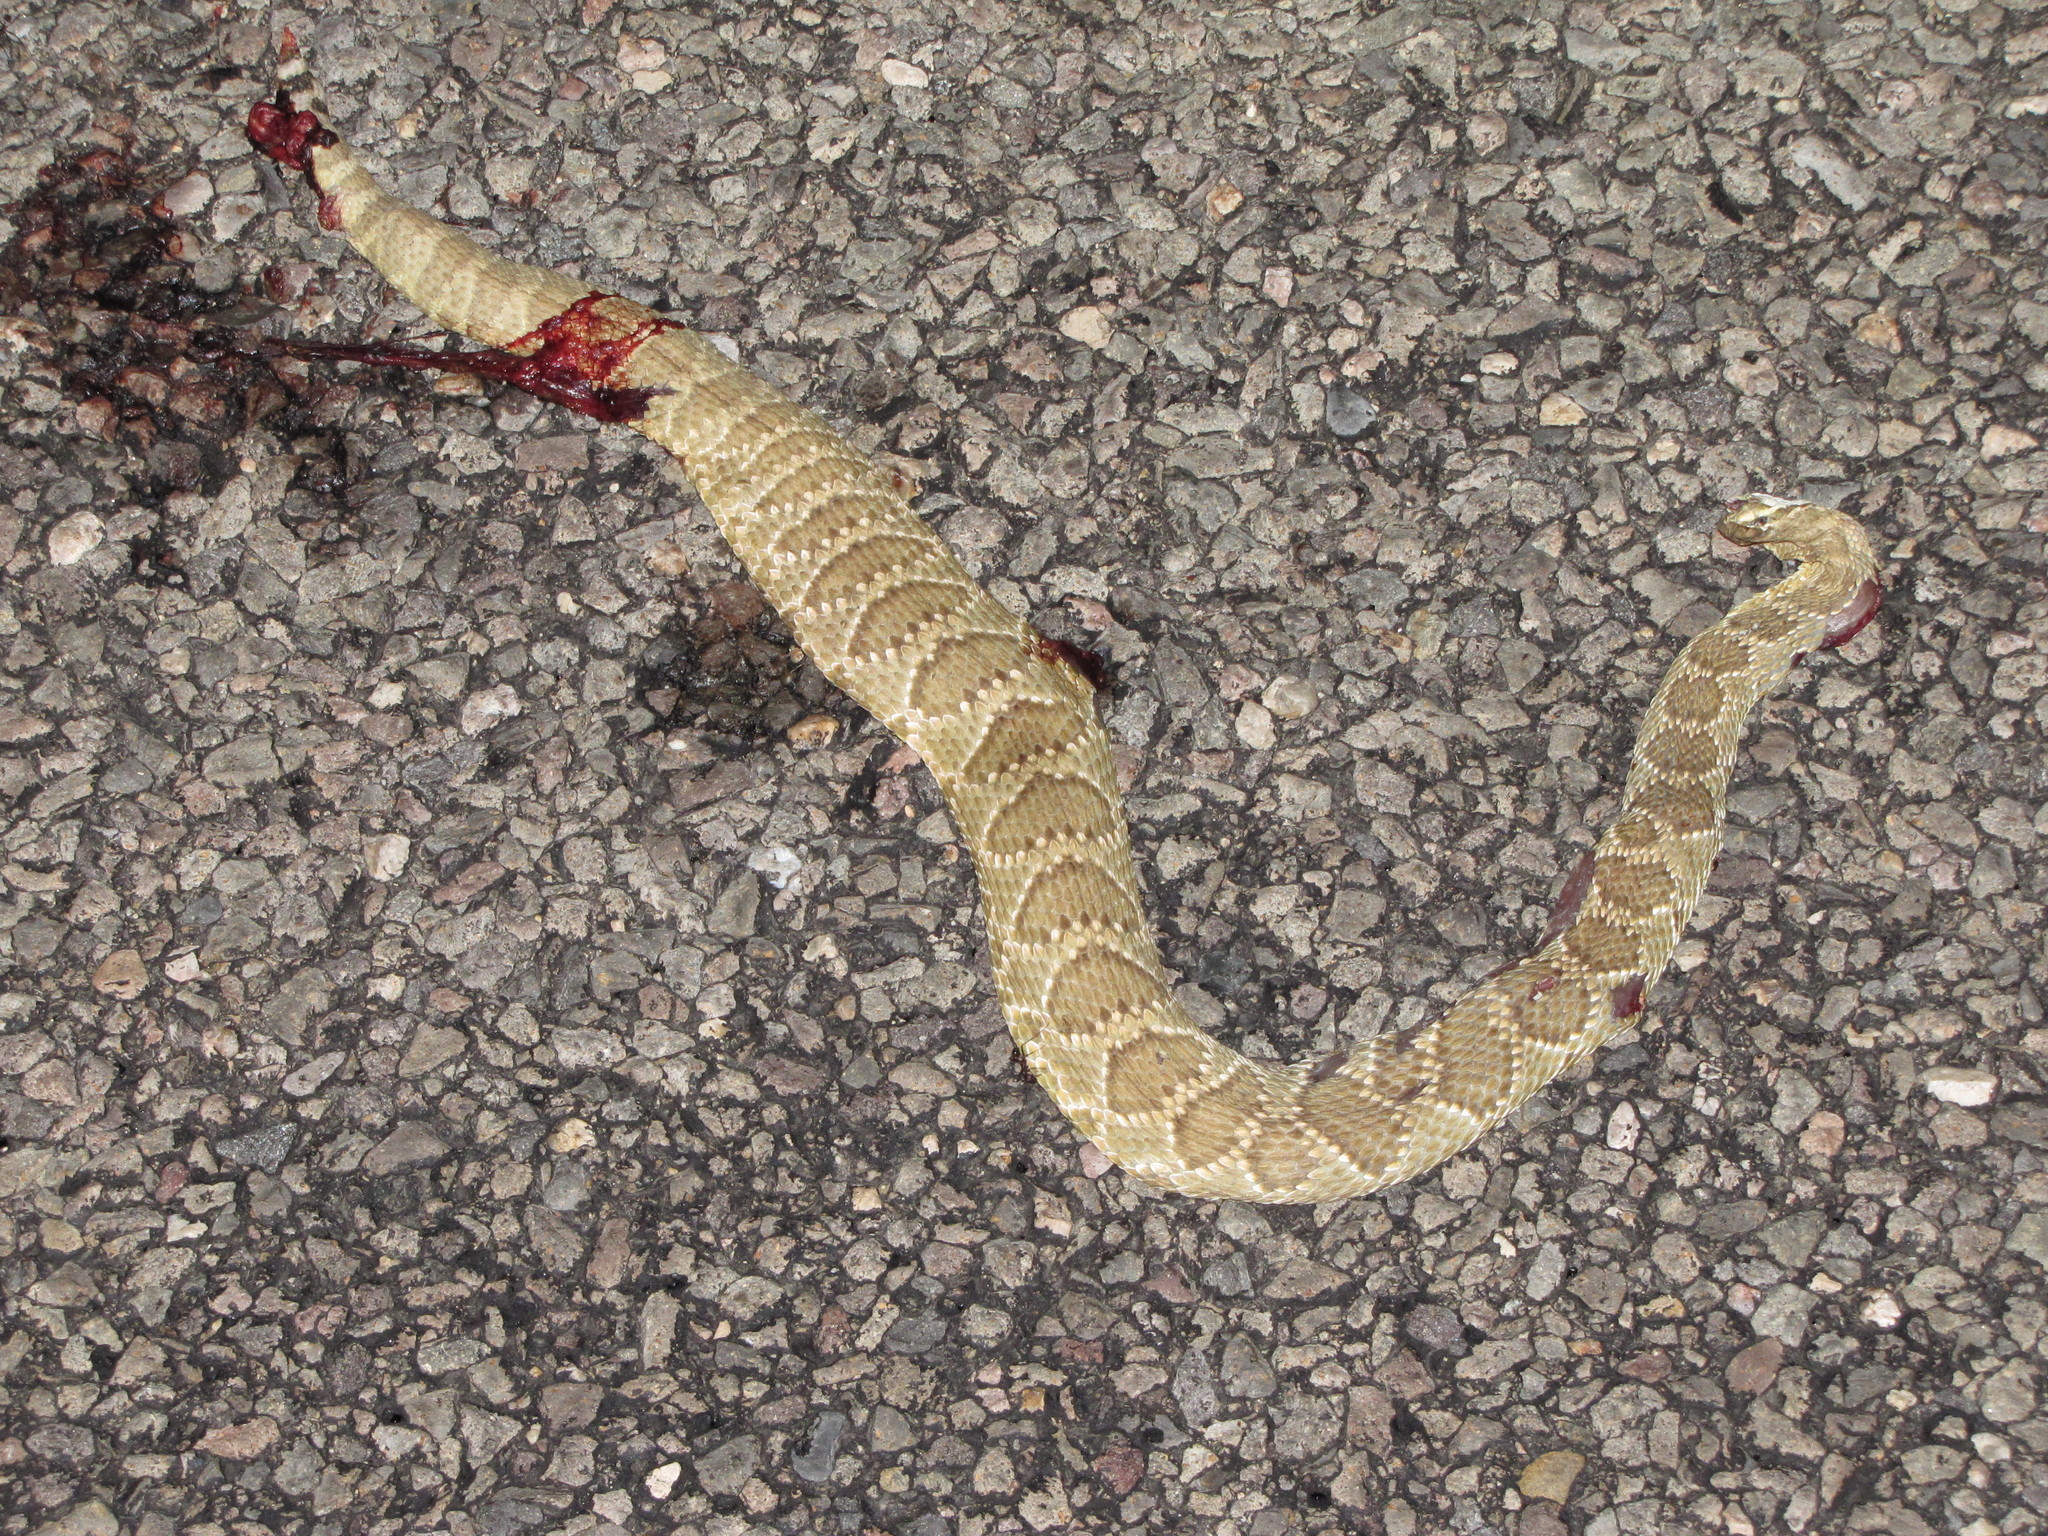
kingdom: Animalia
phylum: Chordata
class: Squamata
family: Viperidae
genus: Crotalus
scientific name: Crotalus scutulatus
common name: Scutulatus
